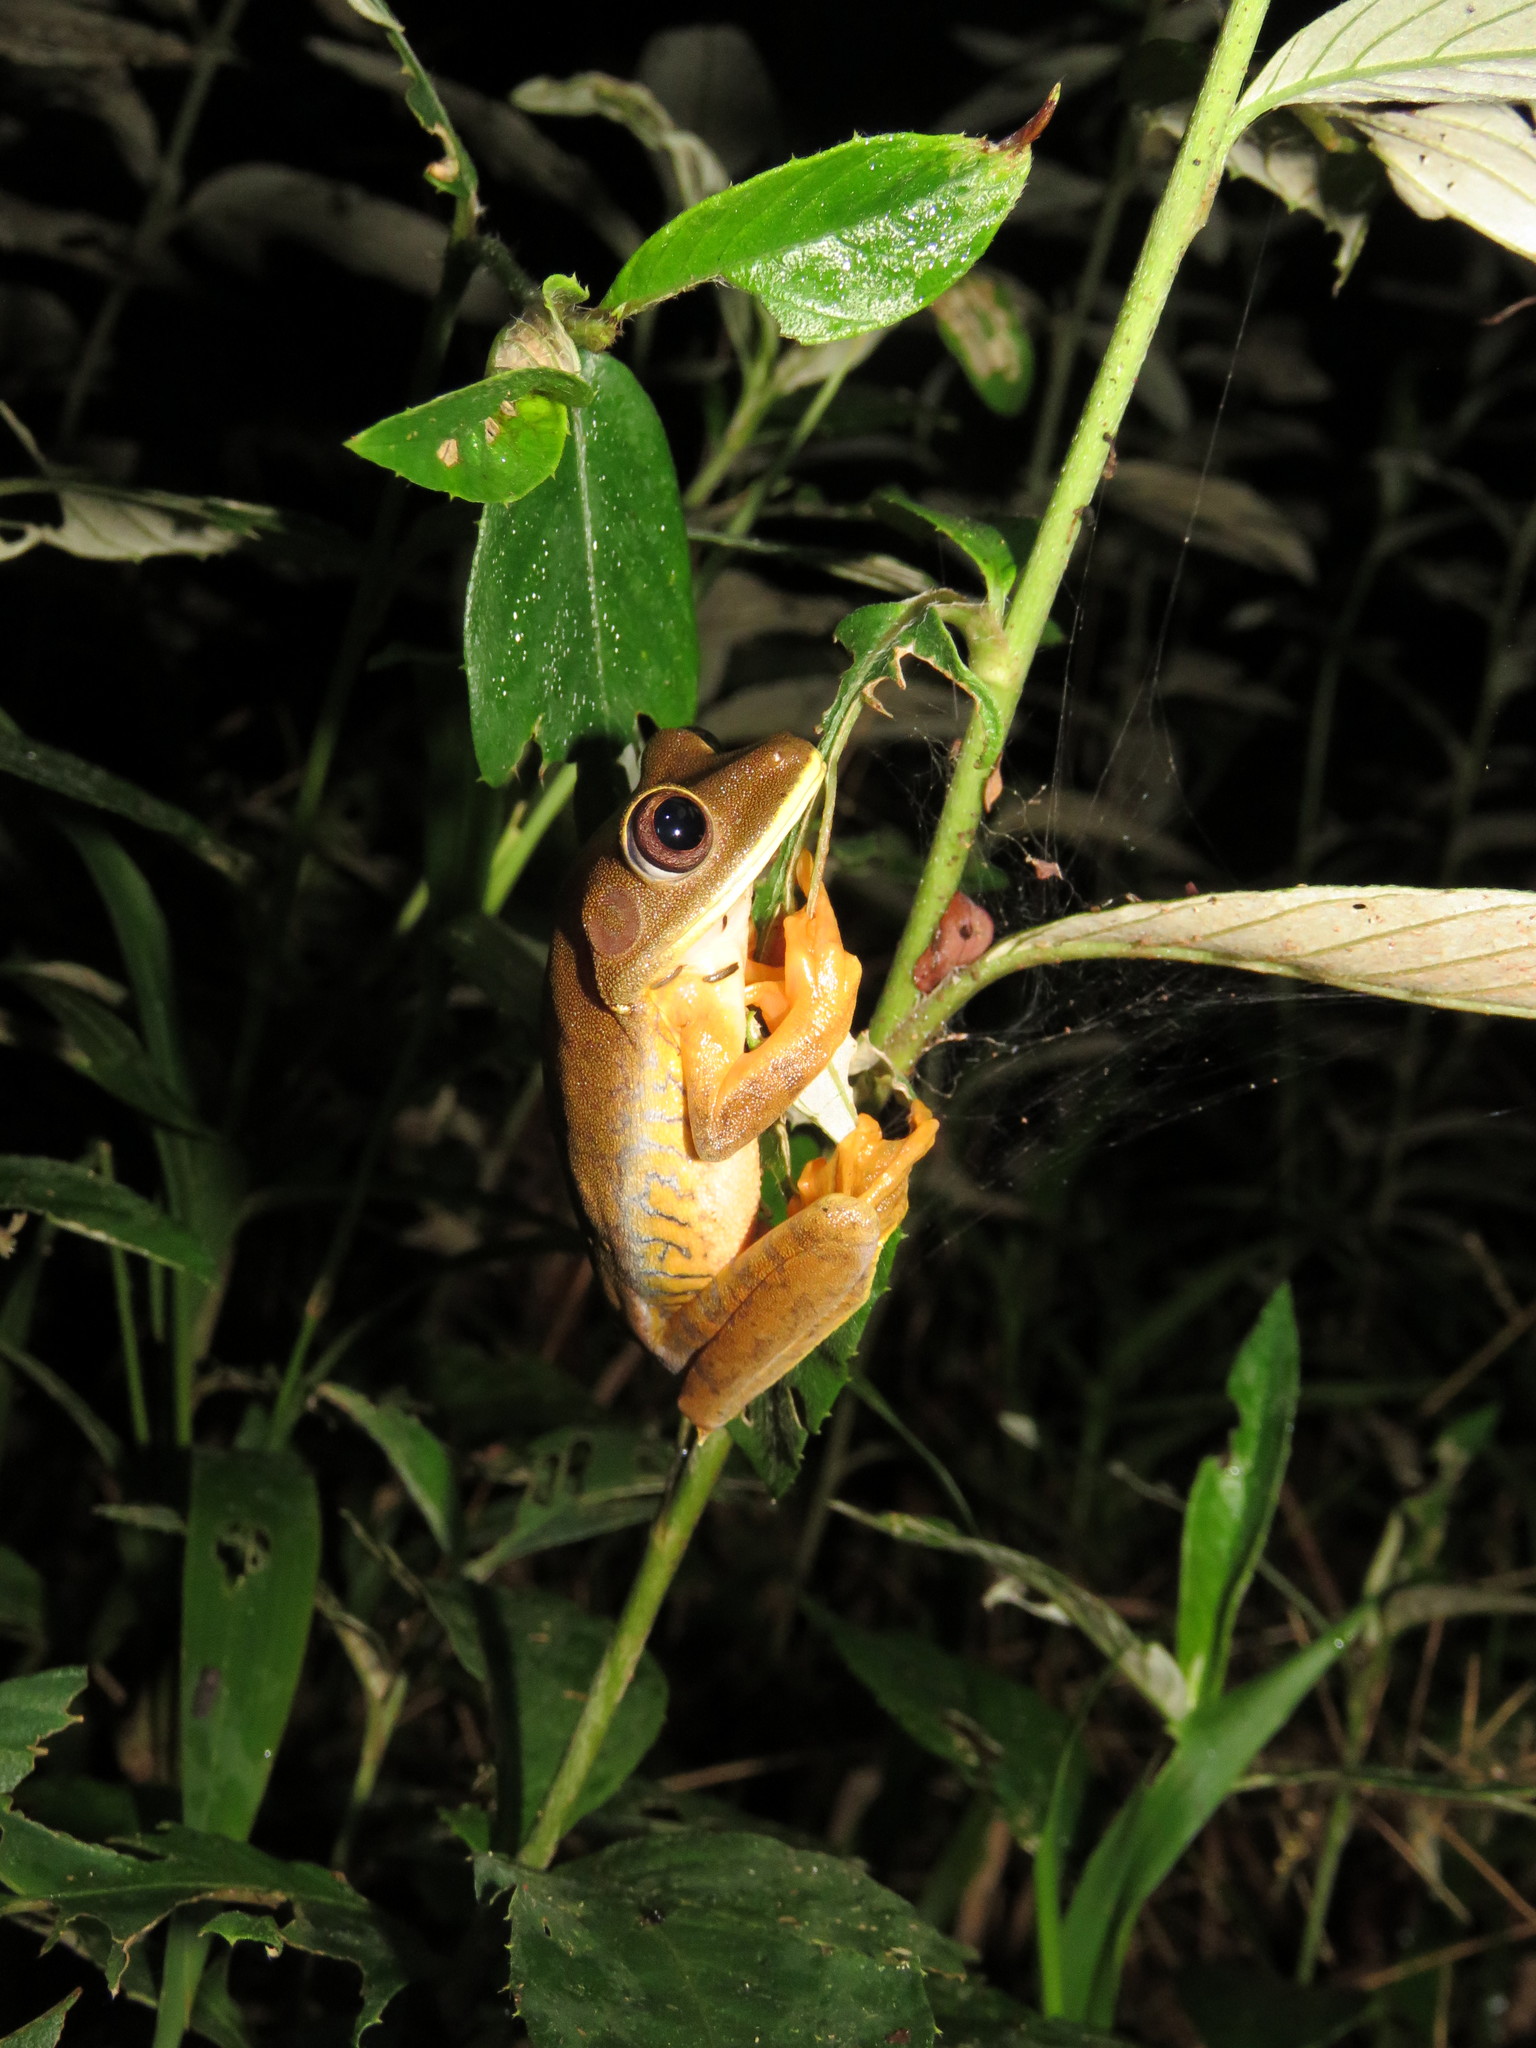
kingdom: Animalia
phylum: Chordata
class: Amphibia
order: Anura
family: Hylidae
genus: Boana
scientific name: Boana geographica
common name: Map treefrog
